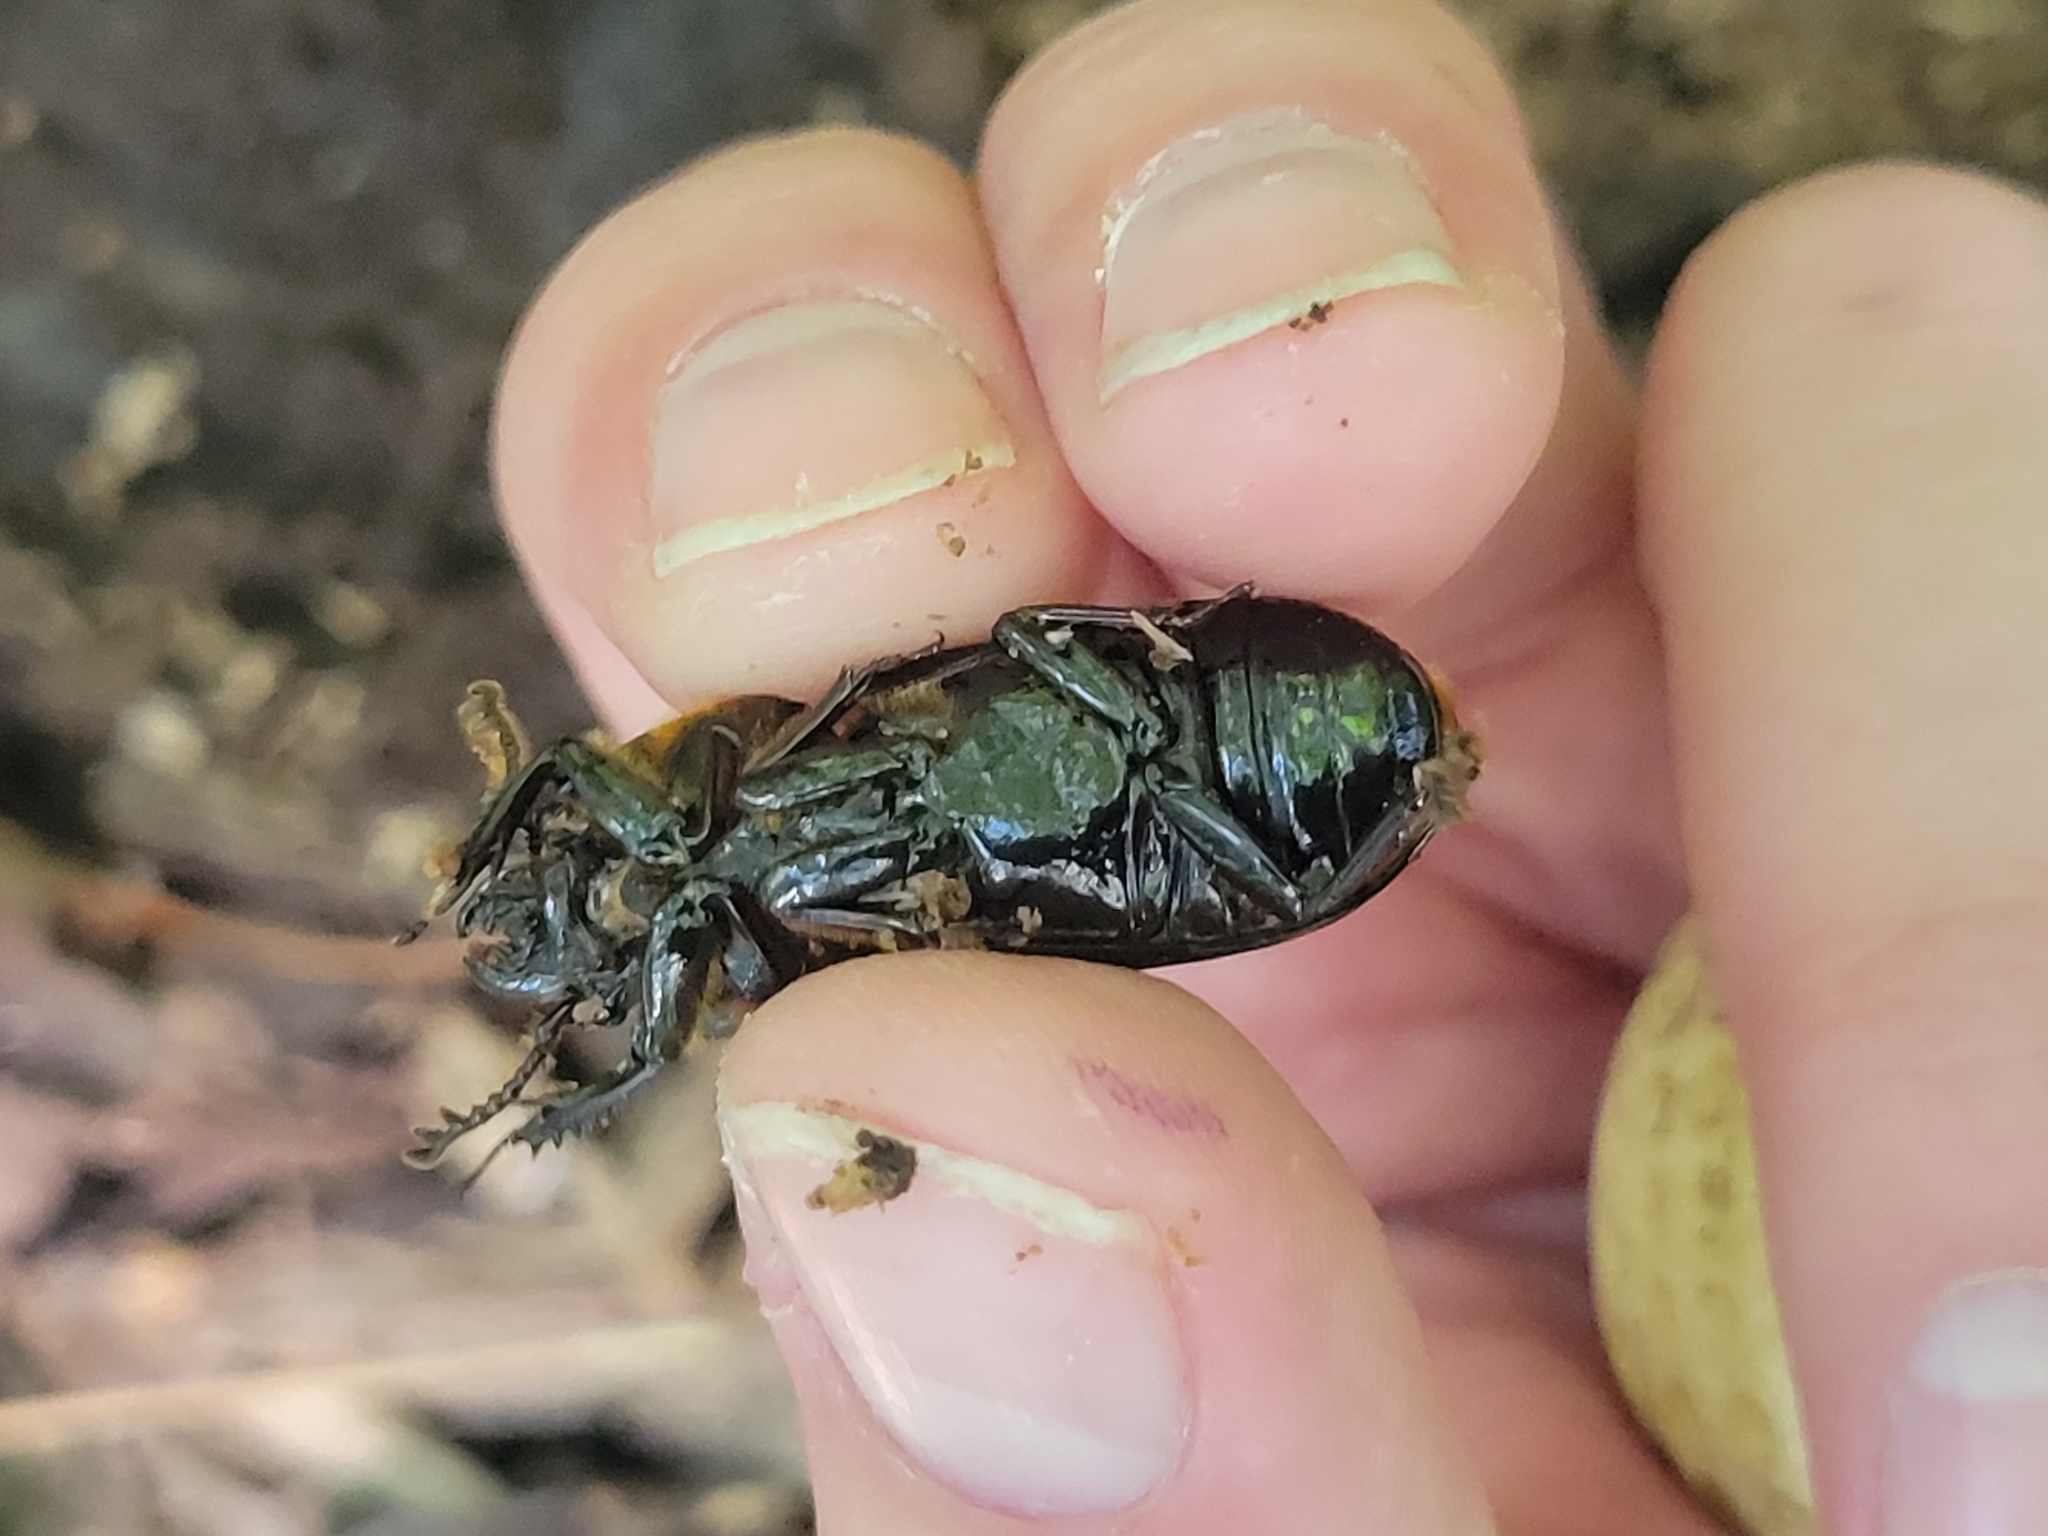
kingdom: Animalia
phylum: Arthropoda
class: Insecta
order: Coleoptera
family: Passalidae
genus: Odontotaenius
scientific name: Odontotaenius disjunctus
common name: Patent leather beetle
